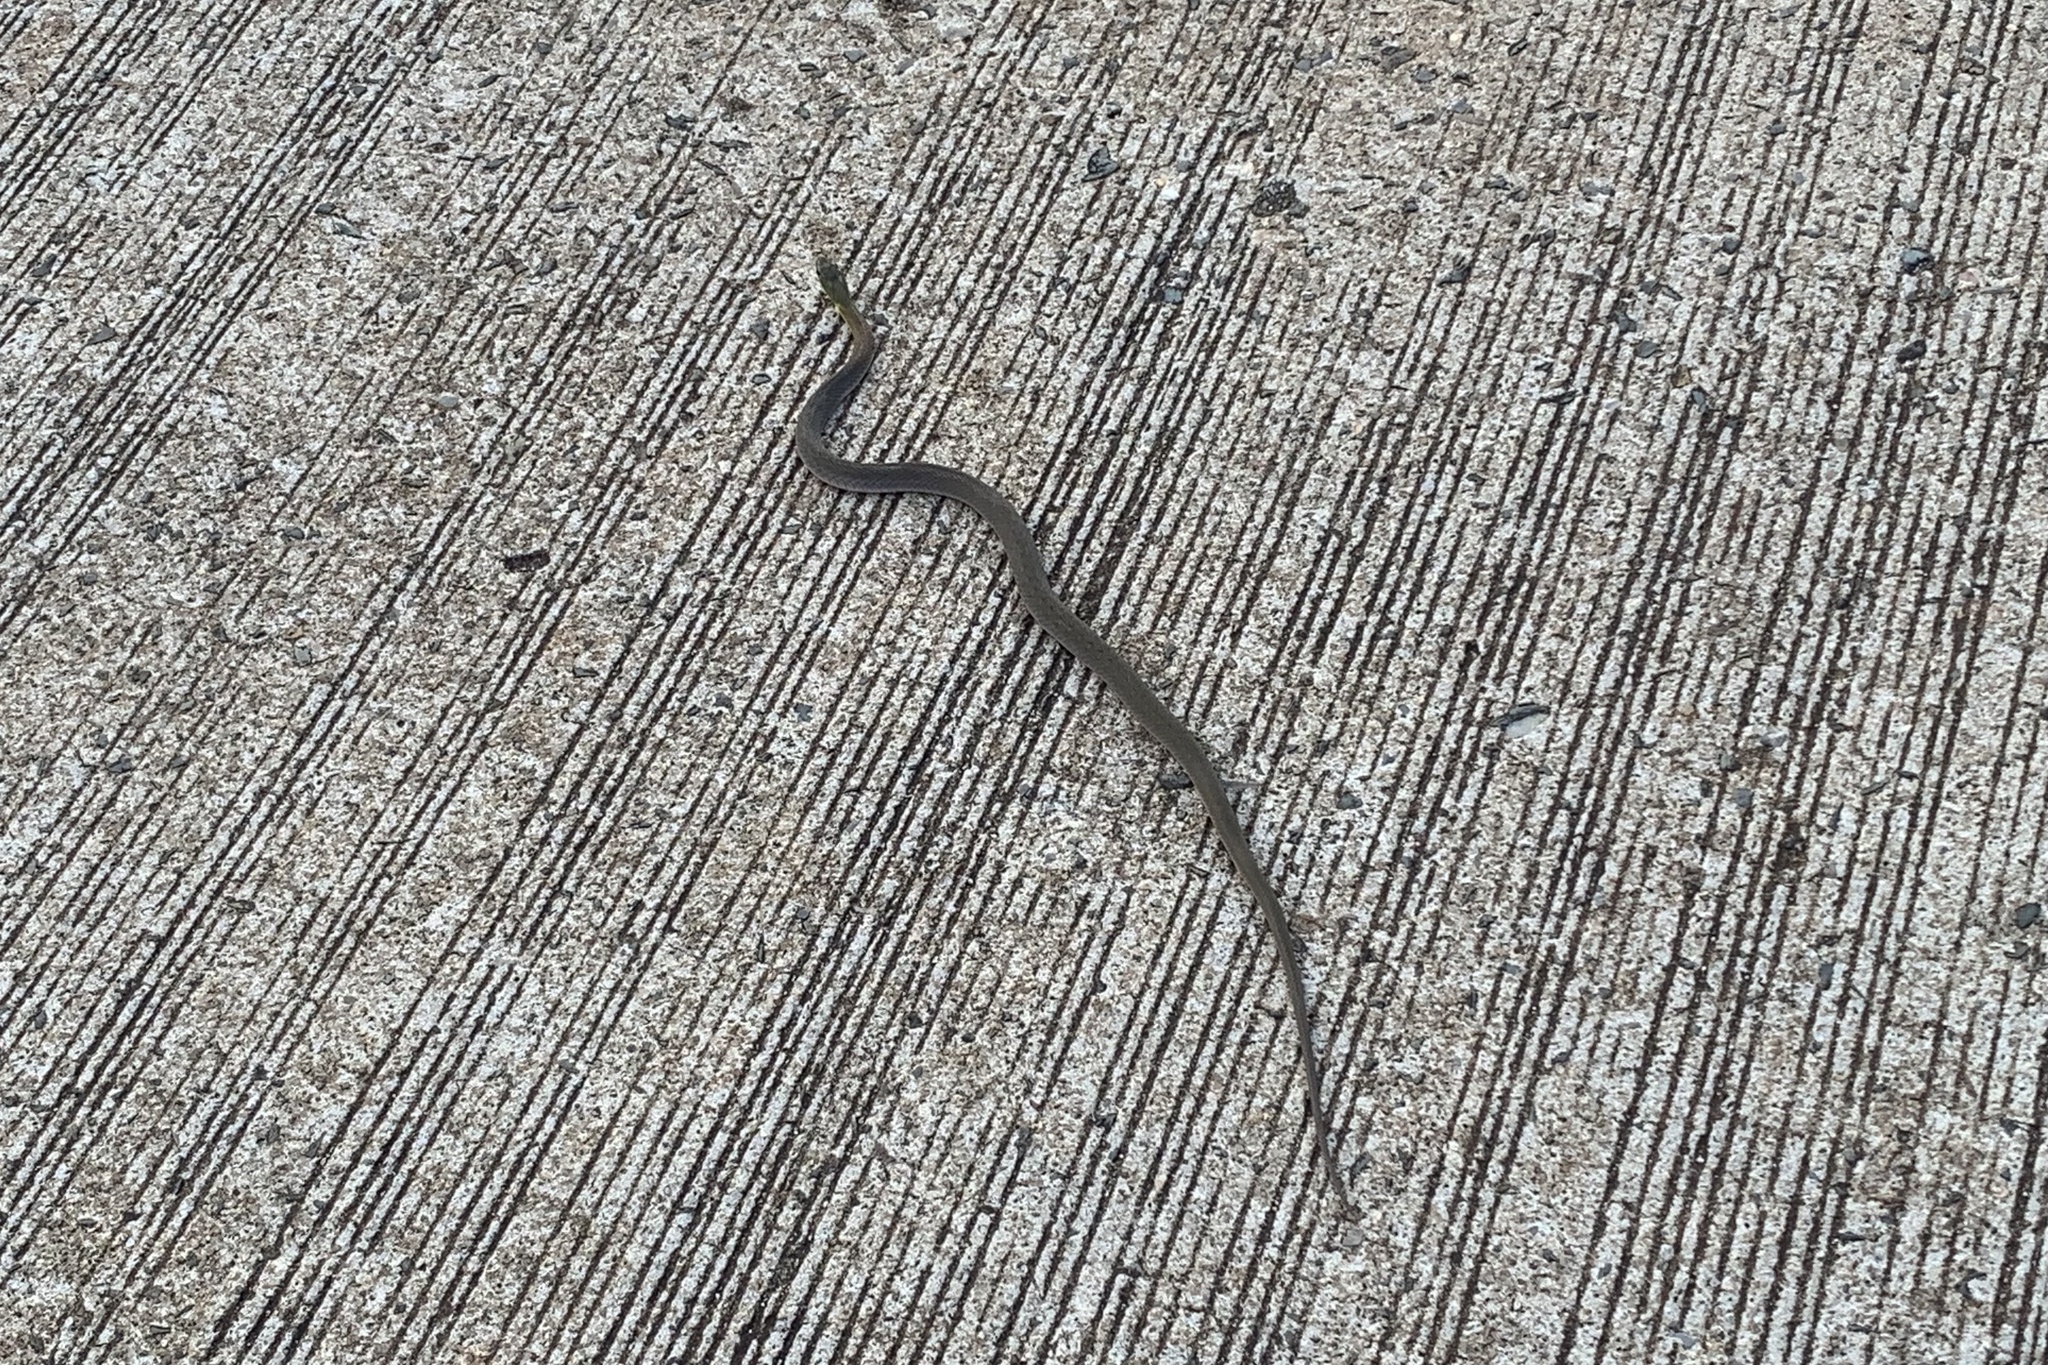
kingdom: Animalia
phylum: Chordata
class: Squamata
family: Colubridae
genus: Rhabdophis
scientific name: Rhabdophis helleri
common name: Heller’s red-necked keelback
